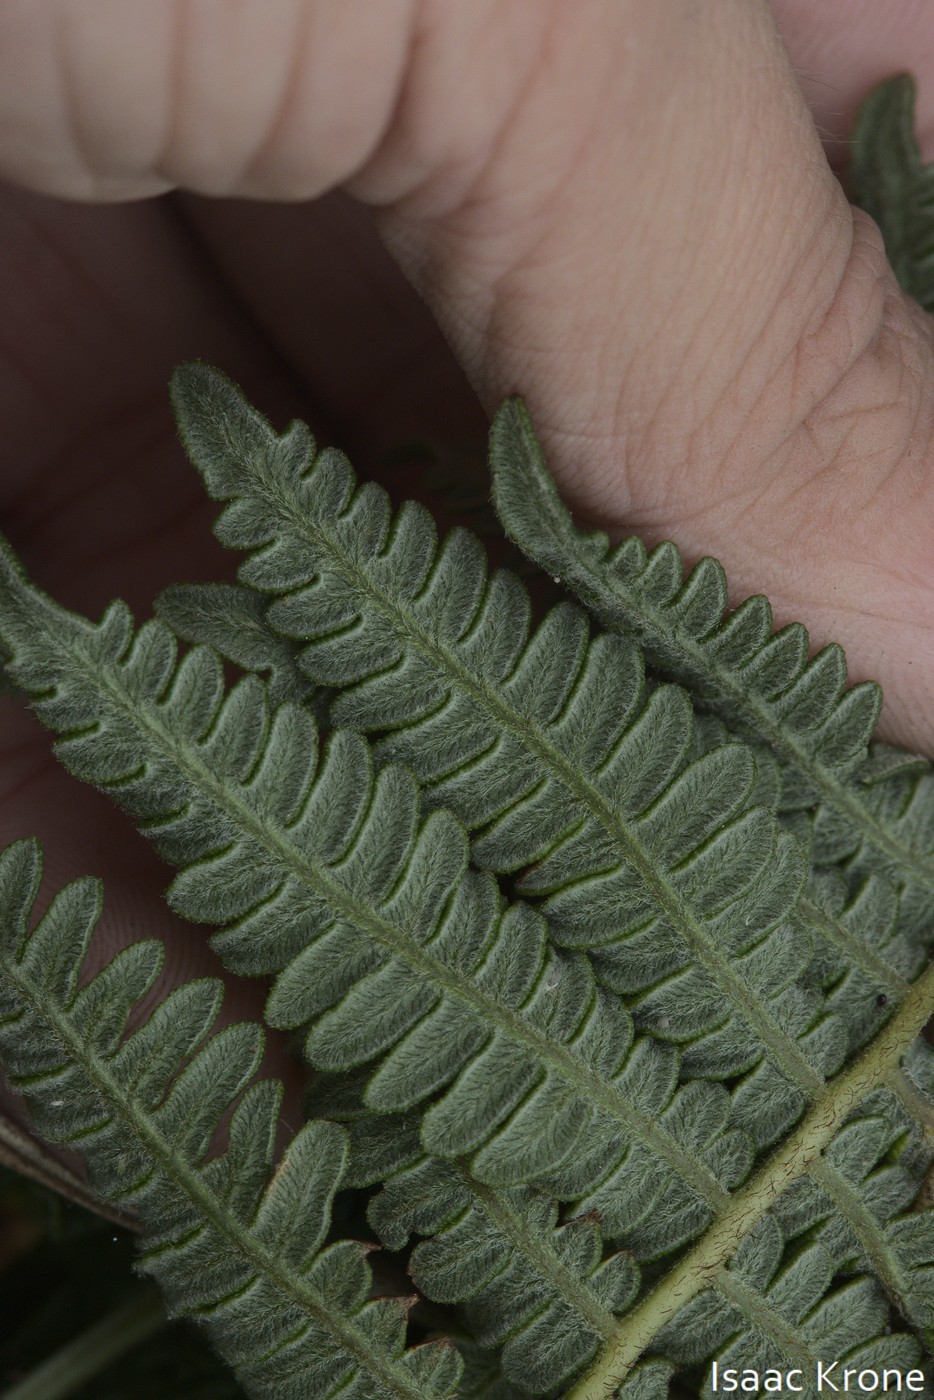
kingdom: Plantae
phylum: Tracheophyta
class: Polypodiopsida
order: Polypodiales
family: Dennstaedtiaceae
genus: Pteridium
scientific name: Pteridium aquilinum
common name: Bracken
